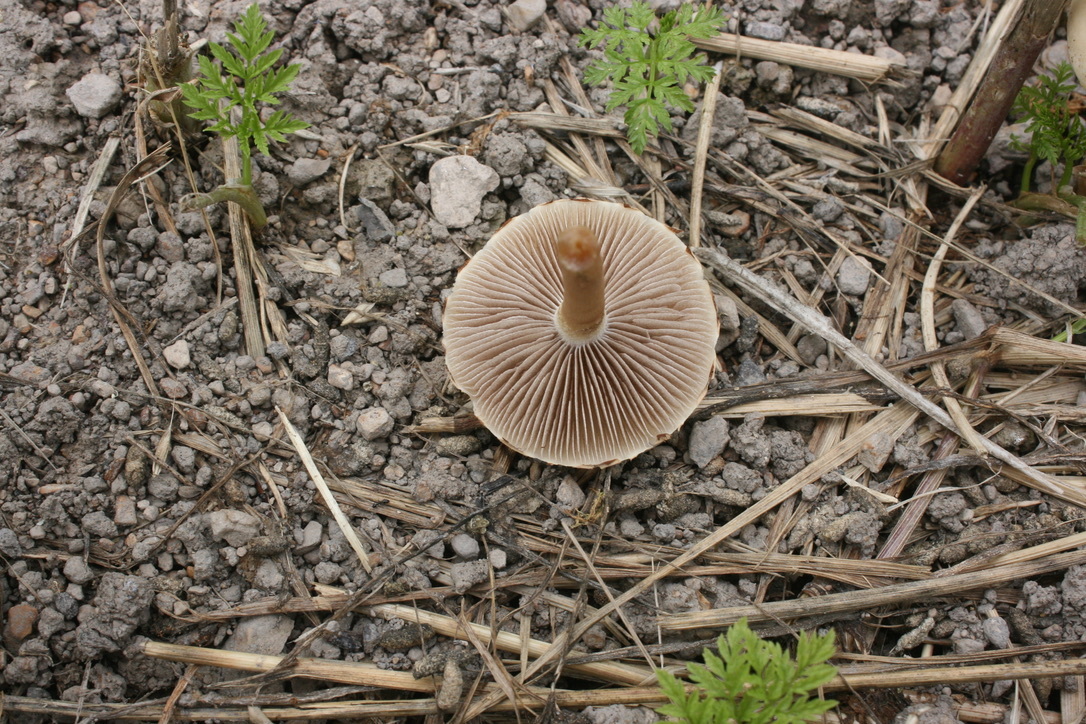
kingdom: Fungi
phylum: Basidiomycota
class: Agaricomycetes
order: Agaricales
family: Strophariaceae
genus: Agrocybe
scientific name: Agrocybe pediades
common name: Common fieldcap
